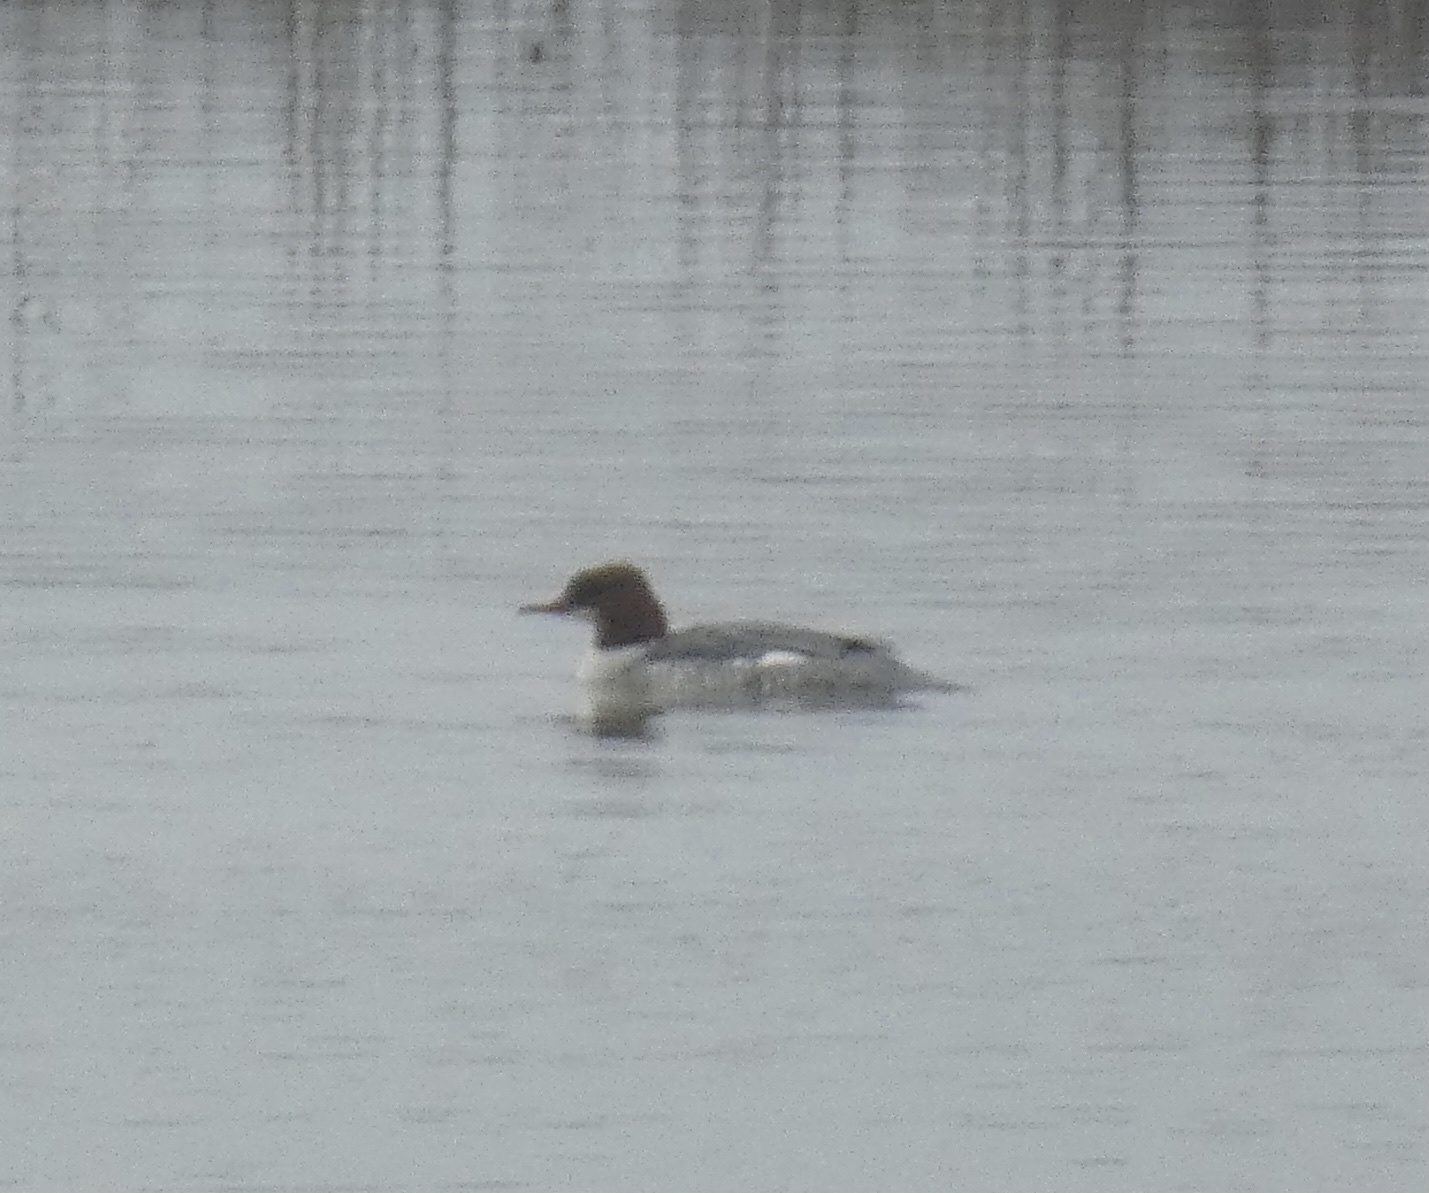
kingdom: Animalia
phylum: Chordata
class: Aves
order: Anseriformes
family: Anatidae
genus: Mergus
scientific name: Mergus merganser
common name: Common merganser
